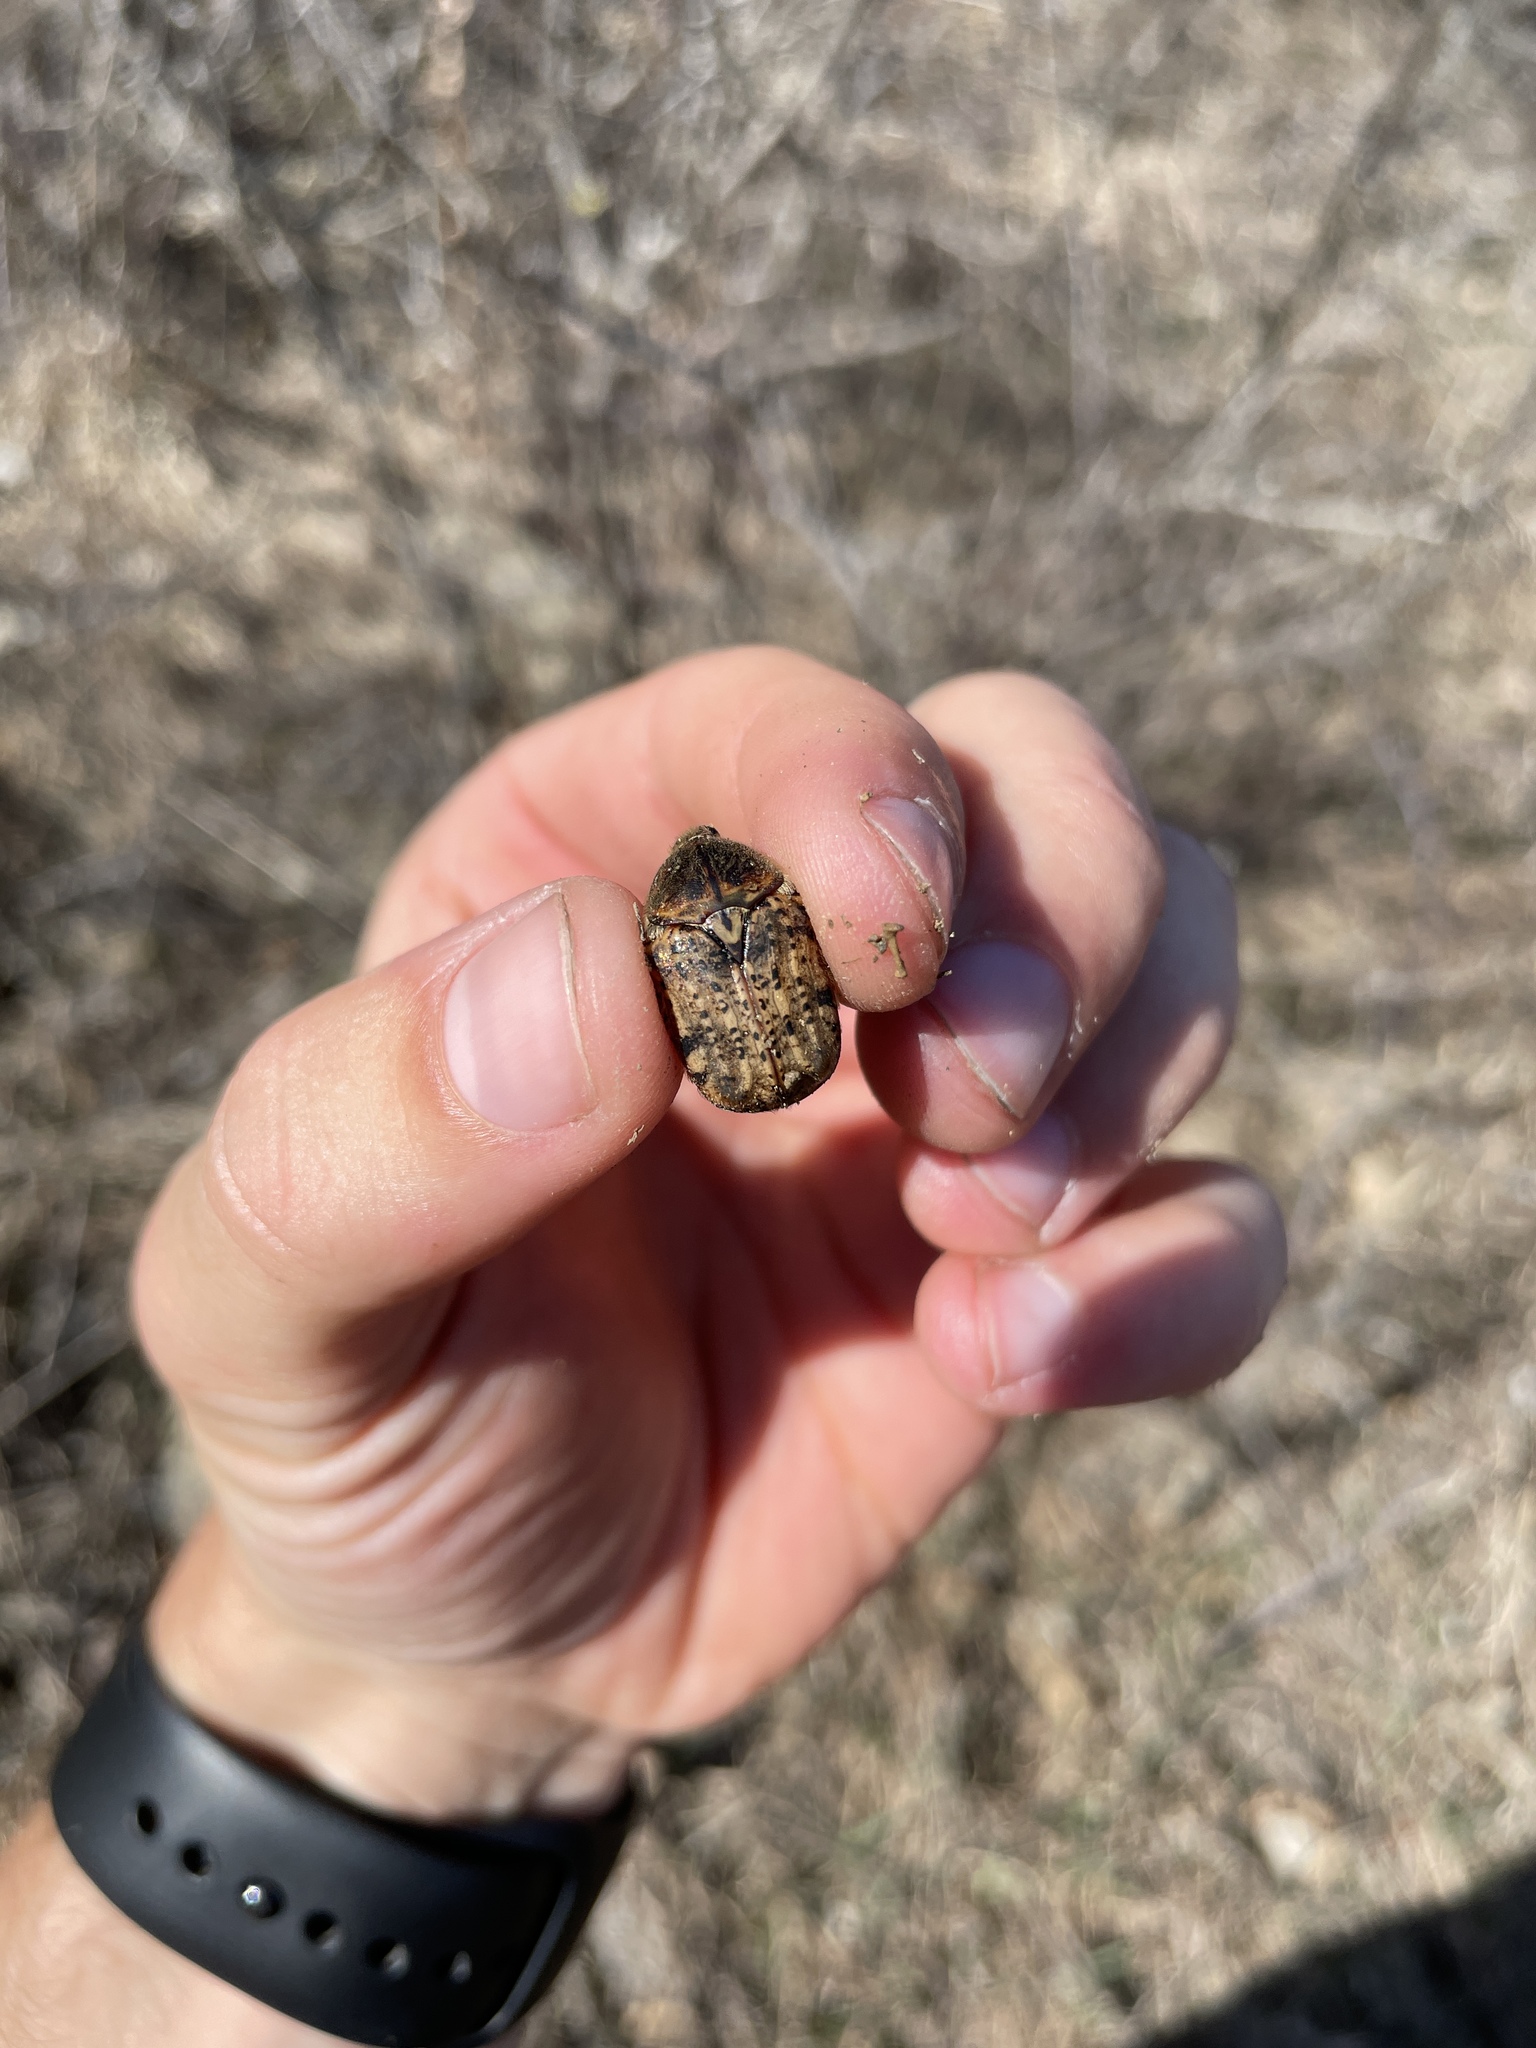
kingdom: Animalia
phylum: Arthropoda
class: Insecta
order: Coleoptera
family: Scarabaeidae
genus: Euphoria
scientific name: Euphoria inda
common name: Bumble flower beetle
